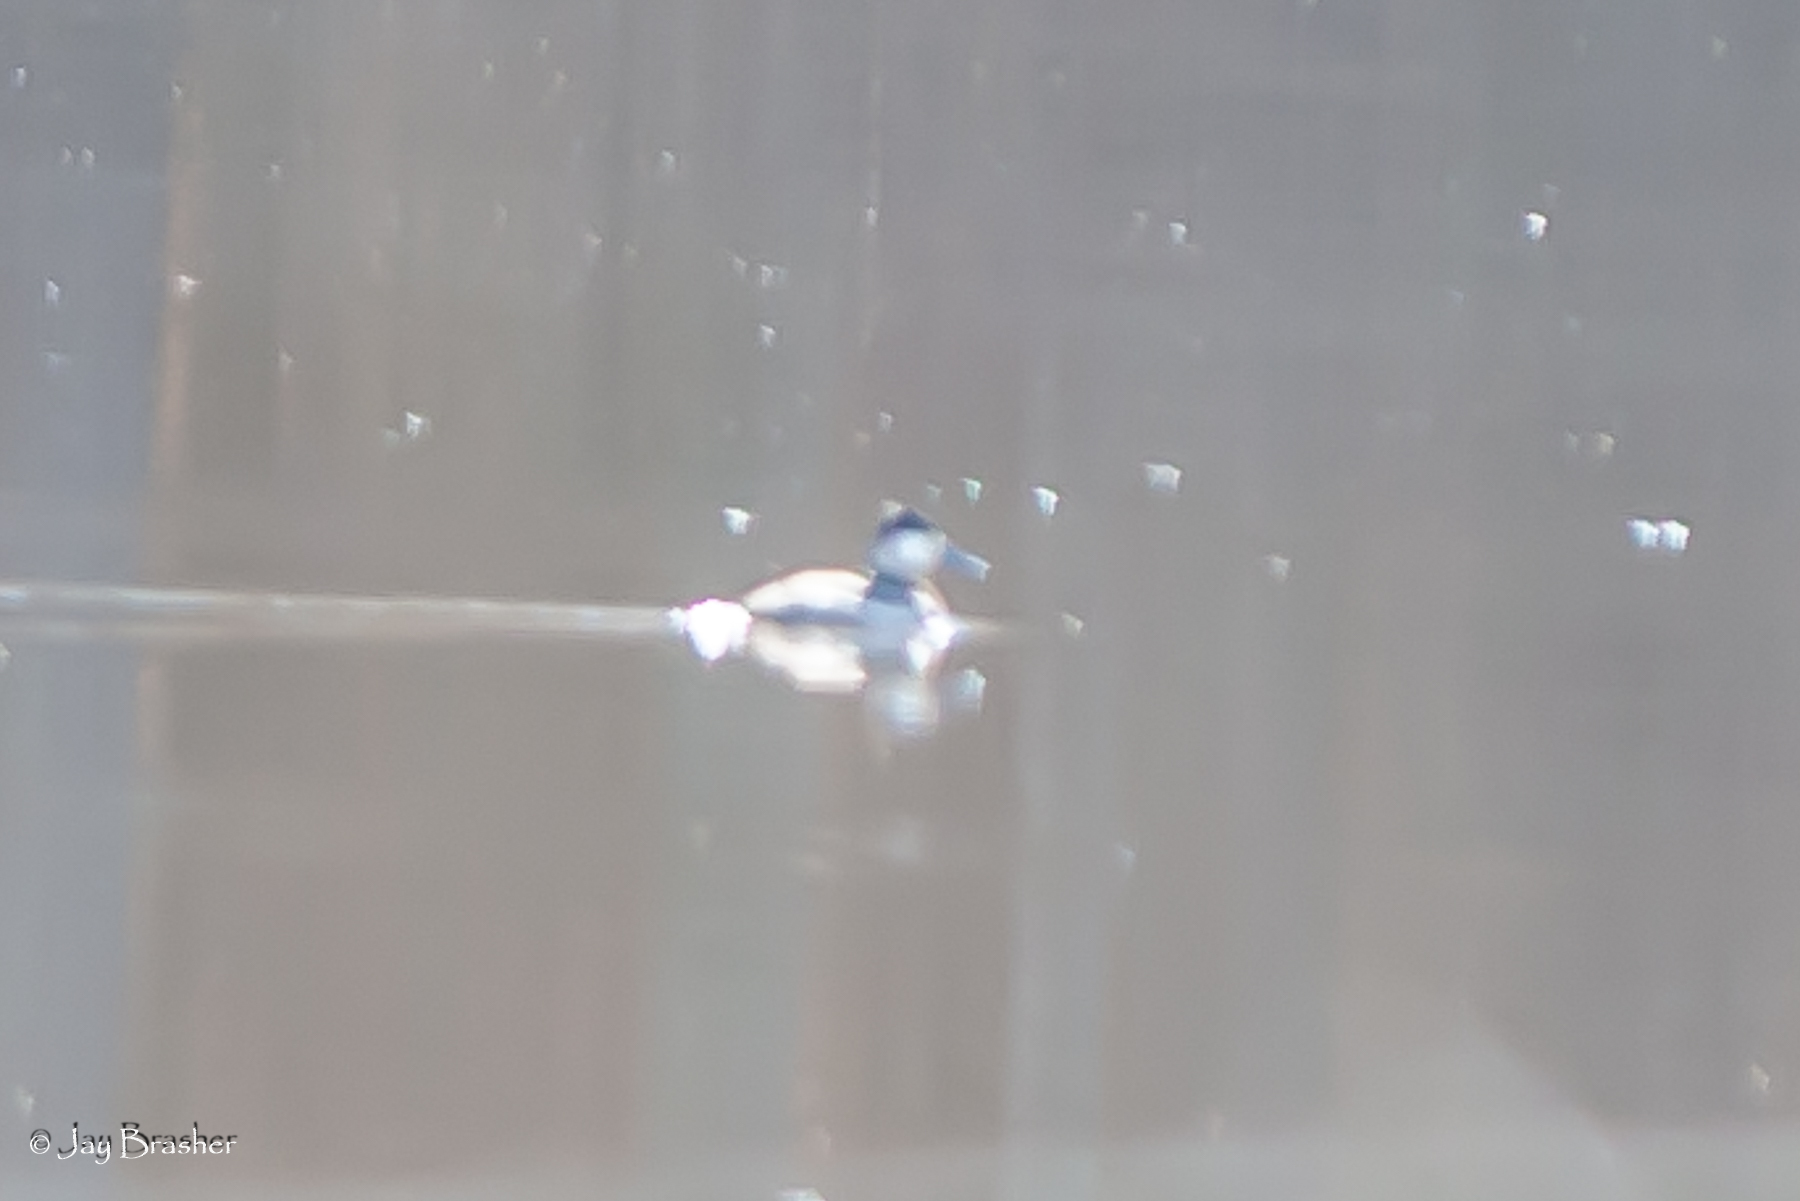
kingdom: Animalia
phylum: Chordata
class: Aves
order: Anseriformes
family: Anatidae
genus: Oxyura
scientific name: Oxyura jamaicensis
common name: Ruddy duck
